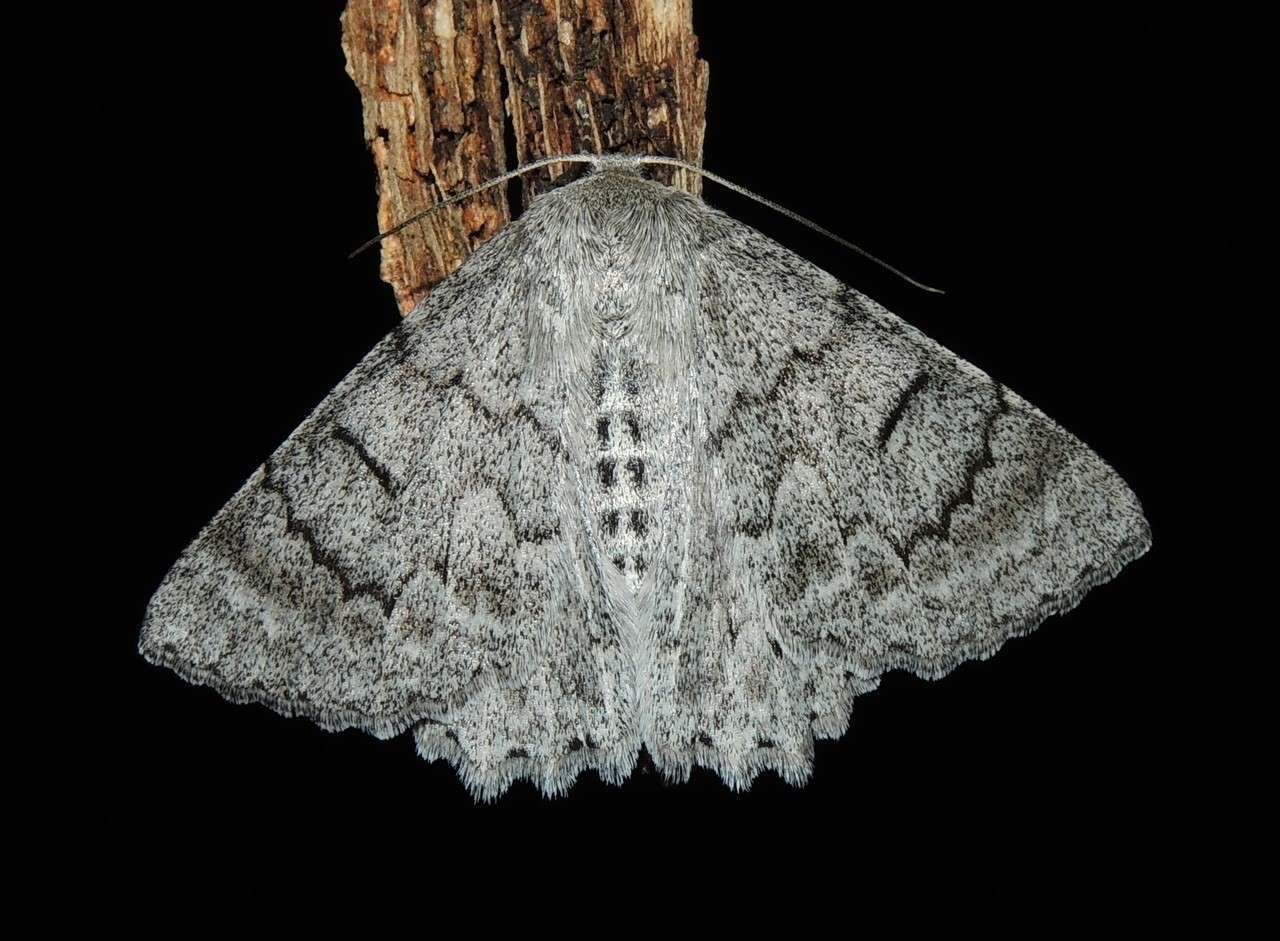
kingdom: Animalia
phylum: Arthropoda
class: Insecta
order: Lepidoptera
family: Geometridae
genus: Crypsiphona
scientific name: Crypsiphona ocultaria
